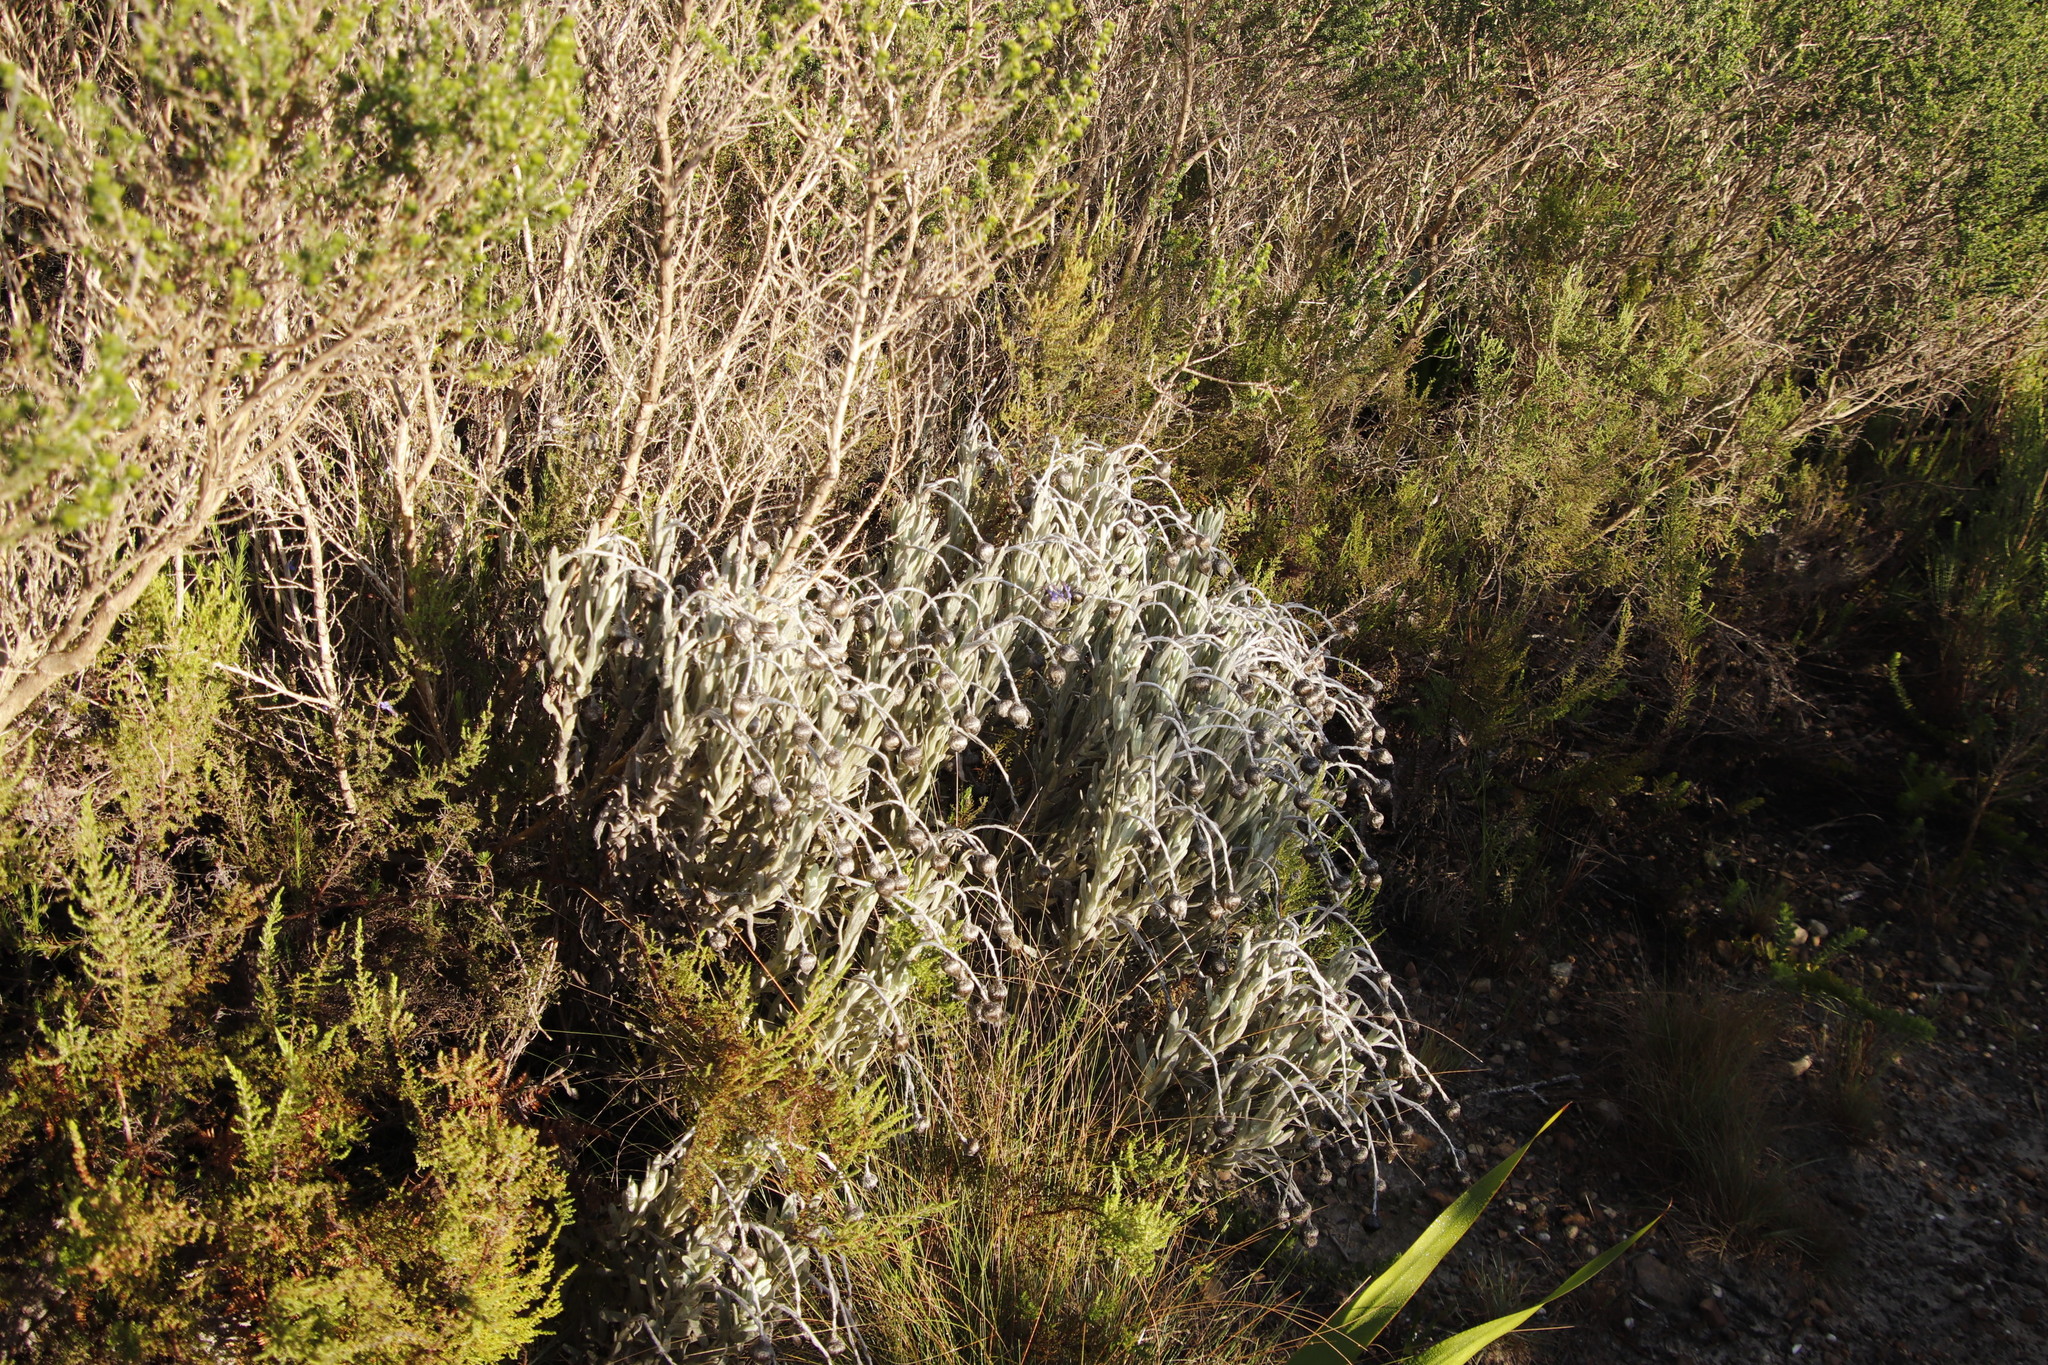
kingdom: Plantae
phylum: Tracheophyta
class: Magnoliopsida
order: Asterales
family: Asteraceae
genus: Syncarpha
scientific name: Syncarpha vestita
